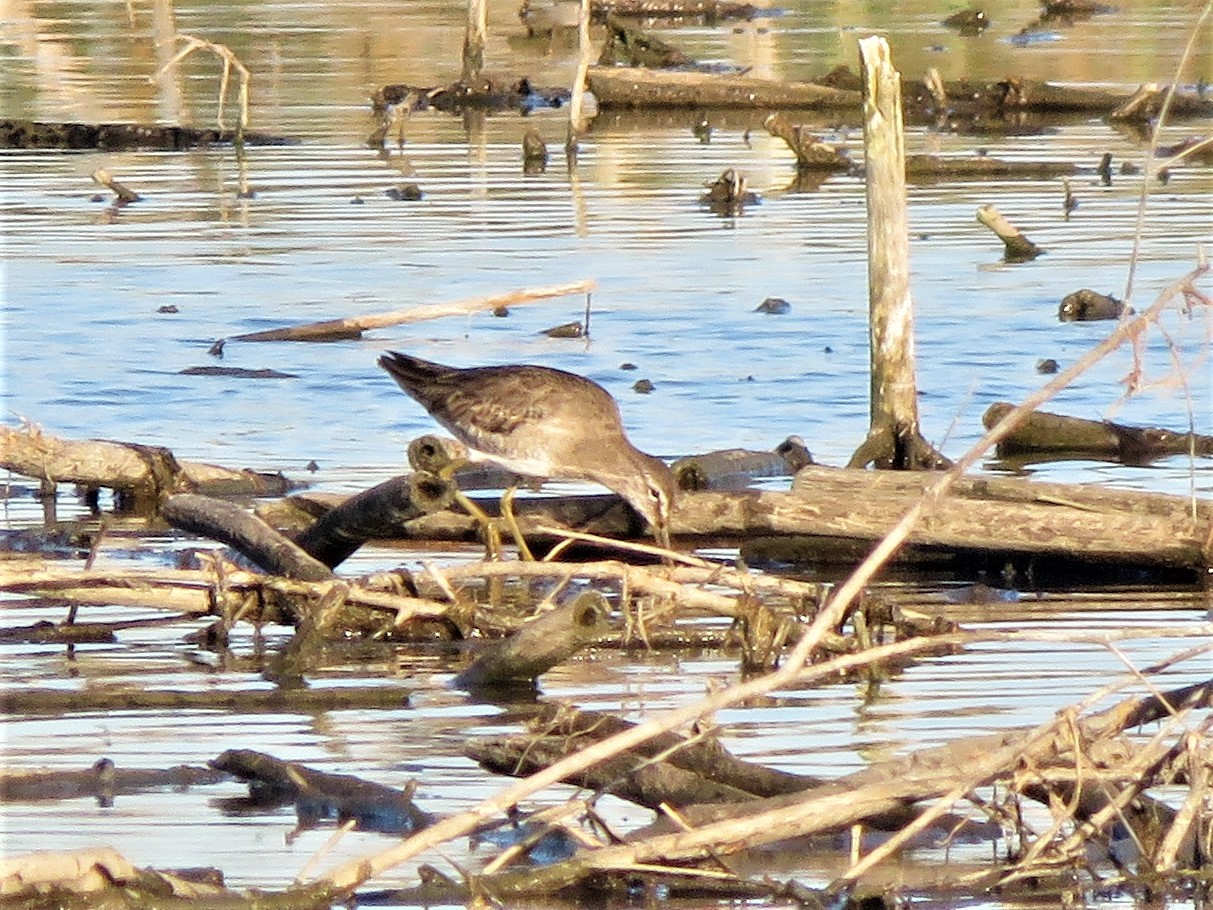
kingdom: Animalia
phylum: Chordata
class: Aves
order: Charadriiformes
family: Scolopacidae
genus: Limnodromus
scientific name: Limnodromus
